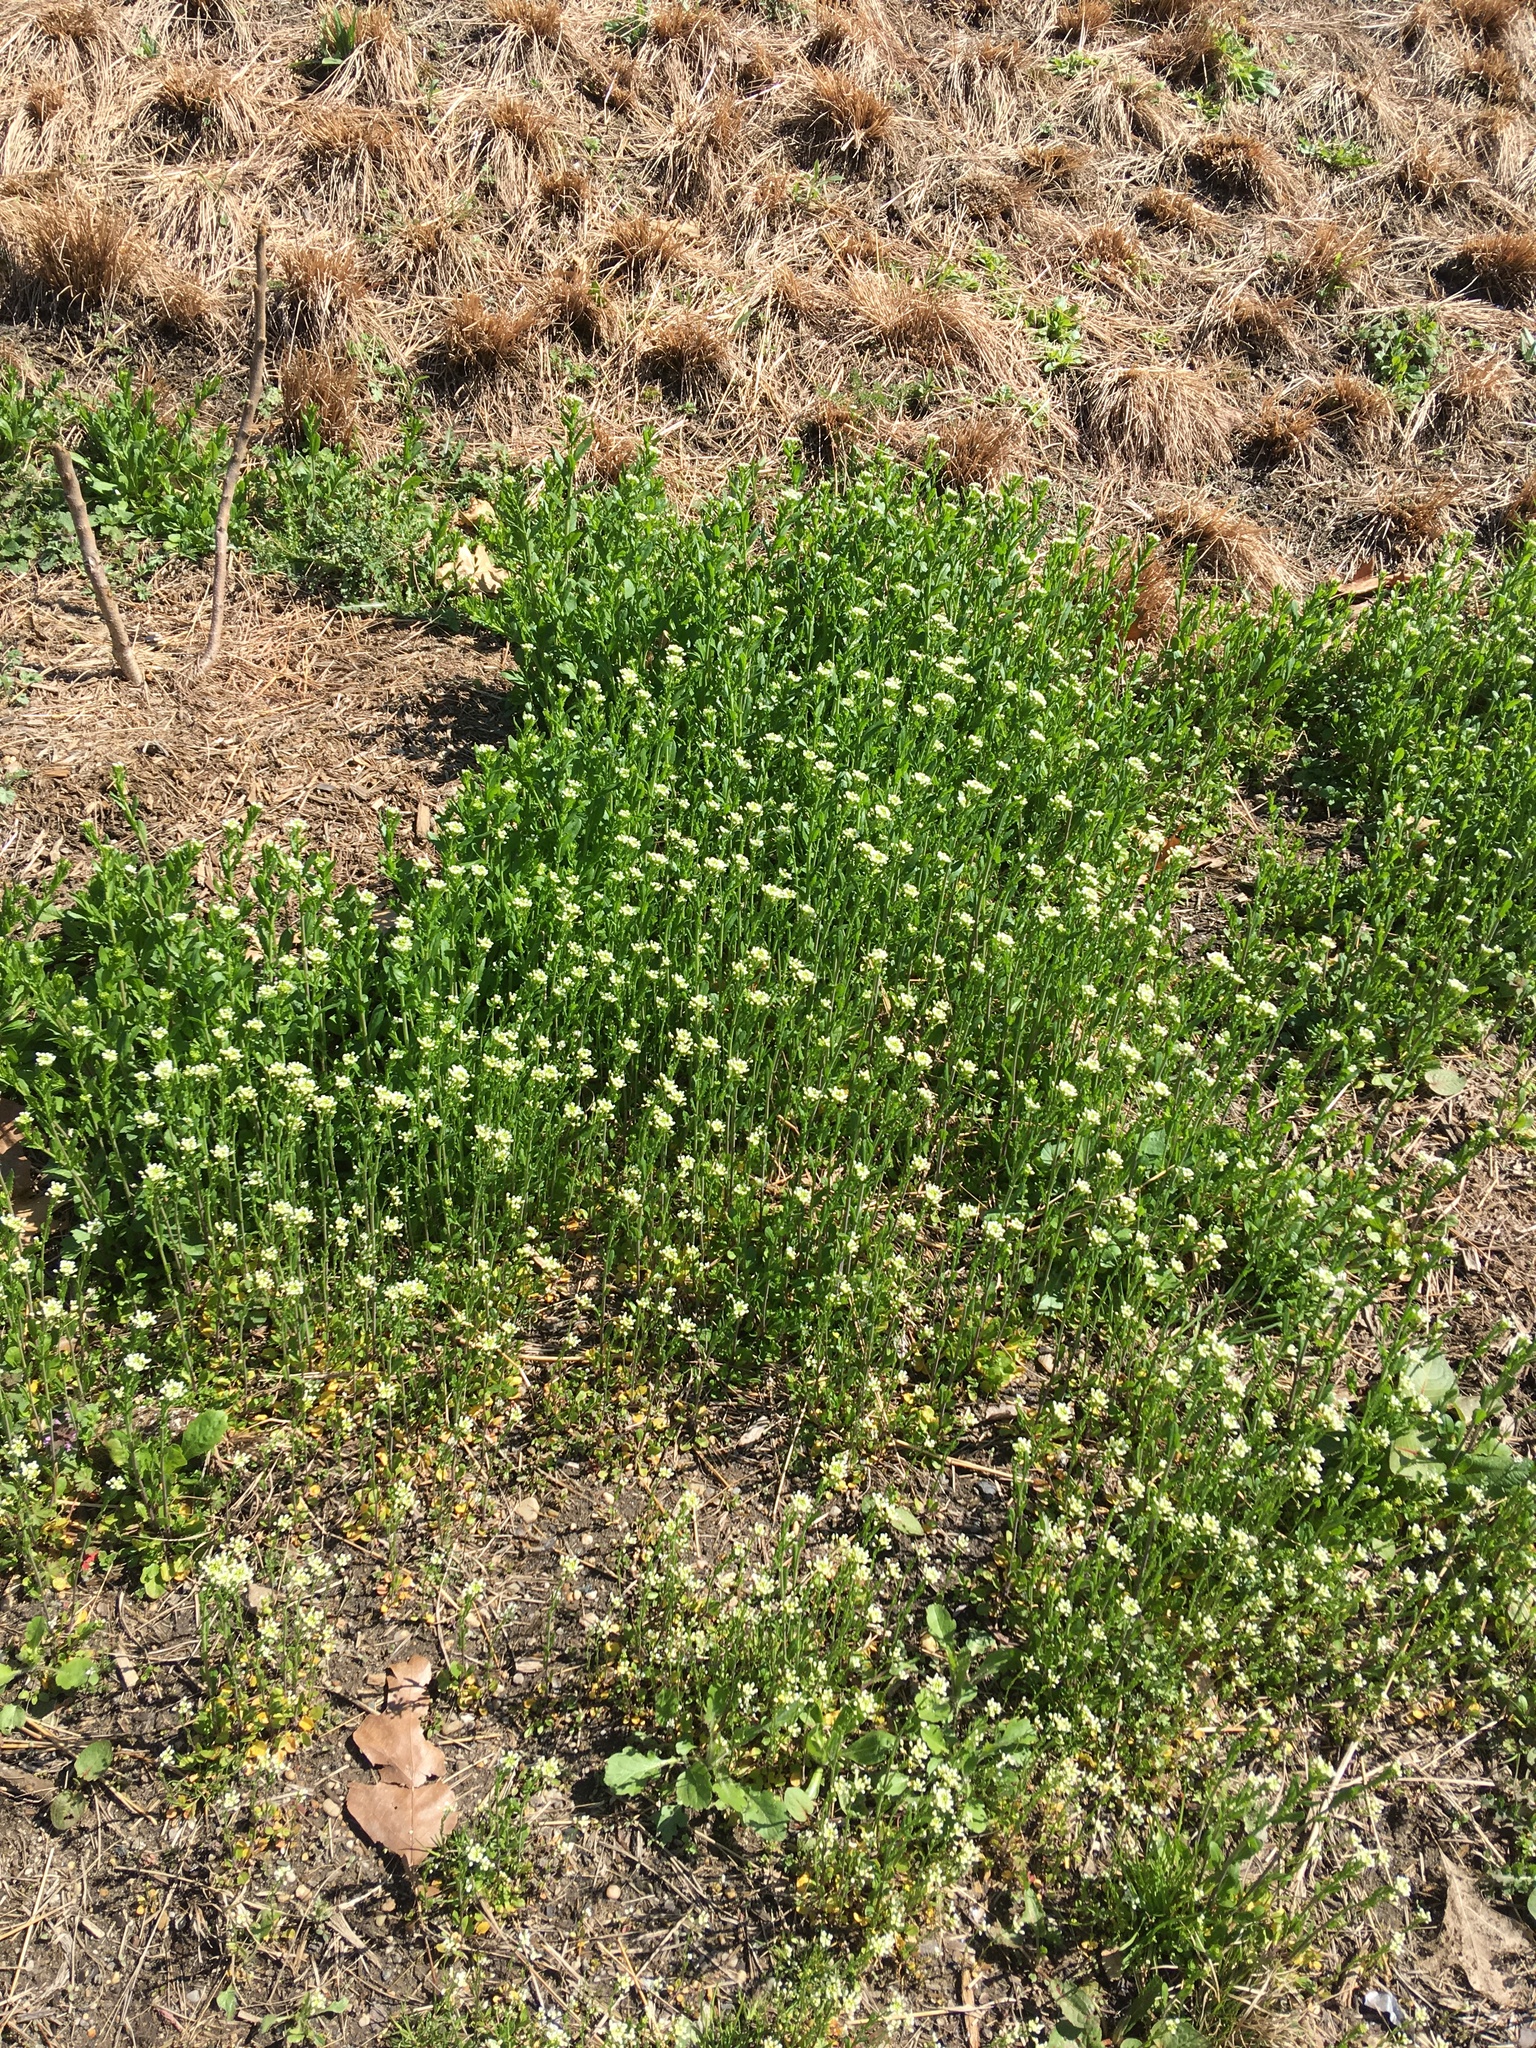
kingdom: Plantae
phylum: Tracheophyta
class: Magnoliopsida
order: Brassicales
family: Brassicaceae
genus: Mummenhoffia
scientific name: Mummenhoffia alliacea
